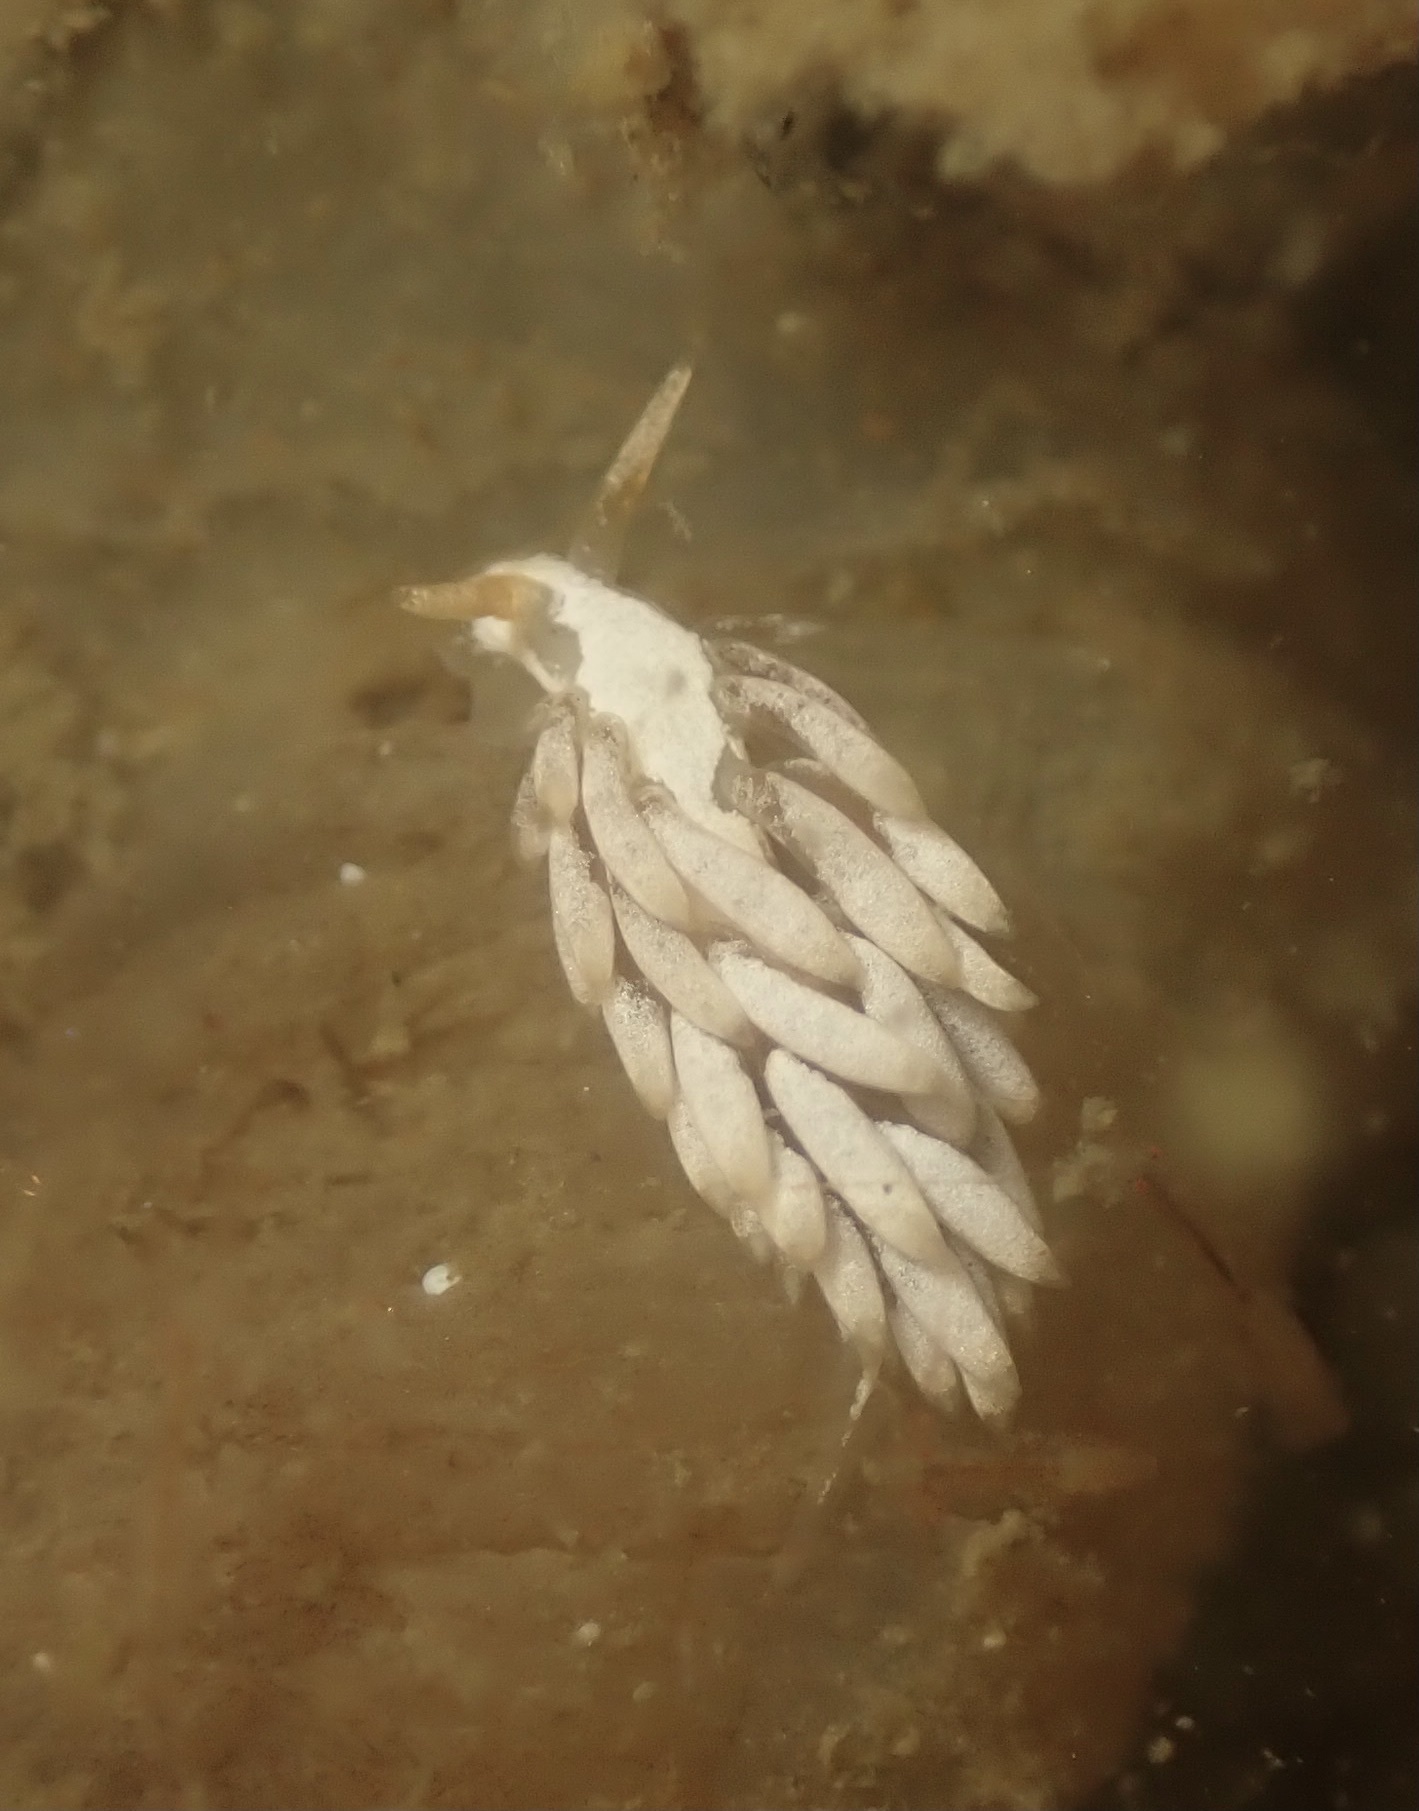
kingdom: Animalia
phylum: Mollusca
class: Gastropoda
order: Nudibranchia
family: Trinchesiidae
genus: Trinchesia
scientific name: Trinchesia albocrusta
